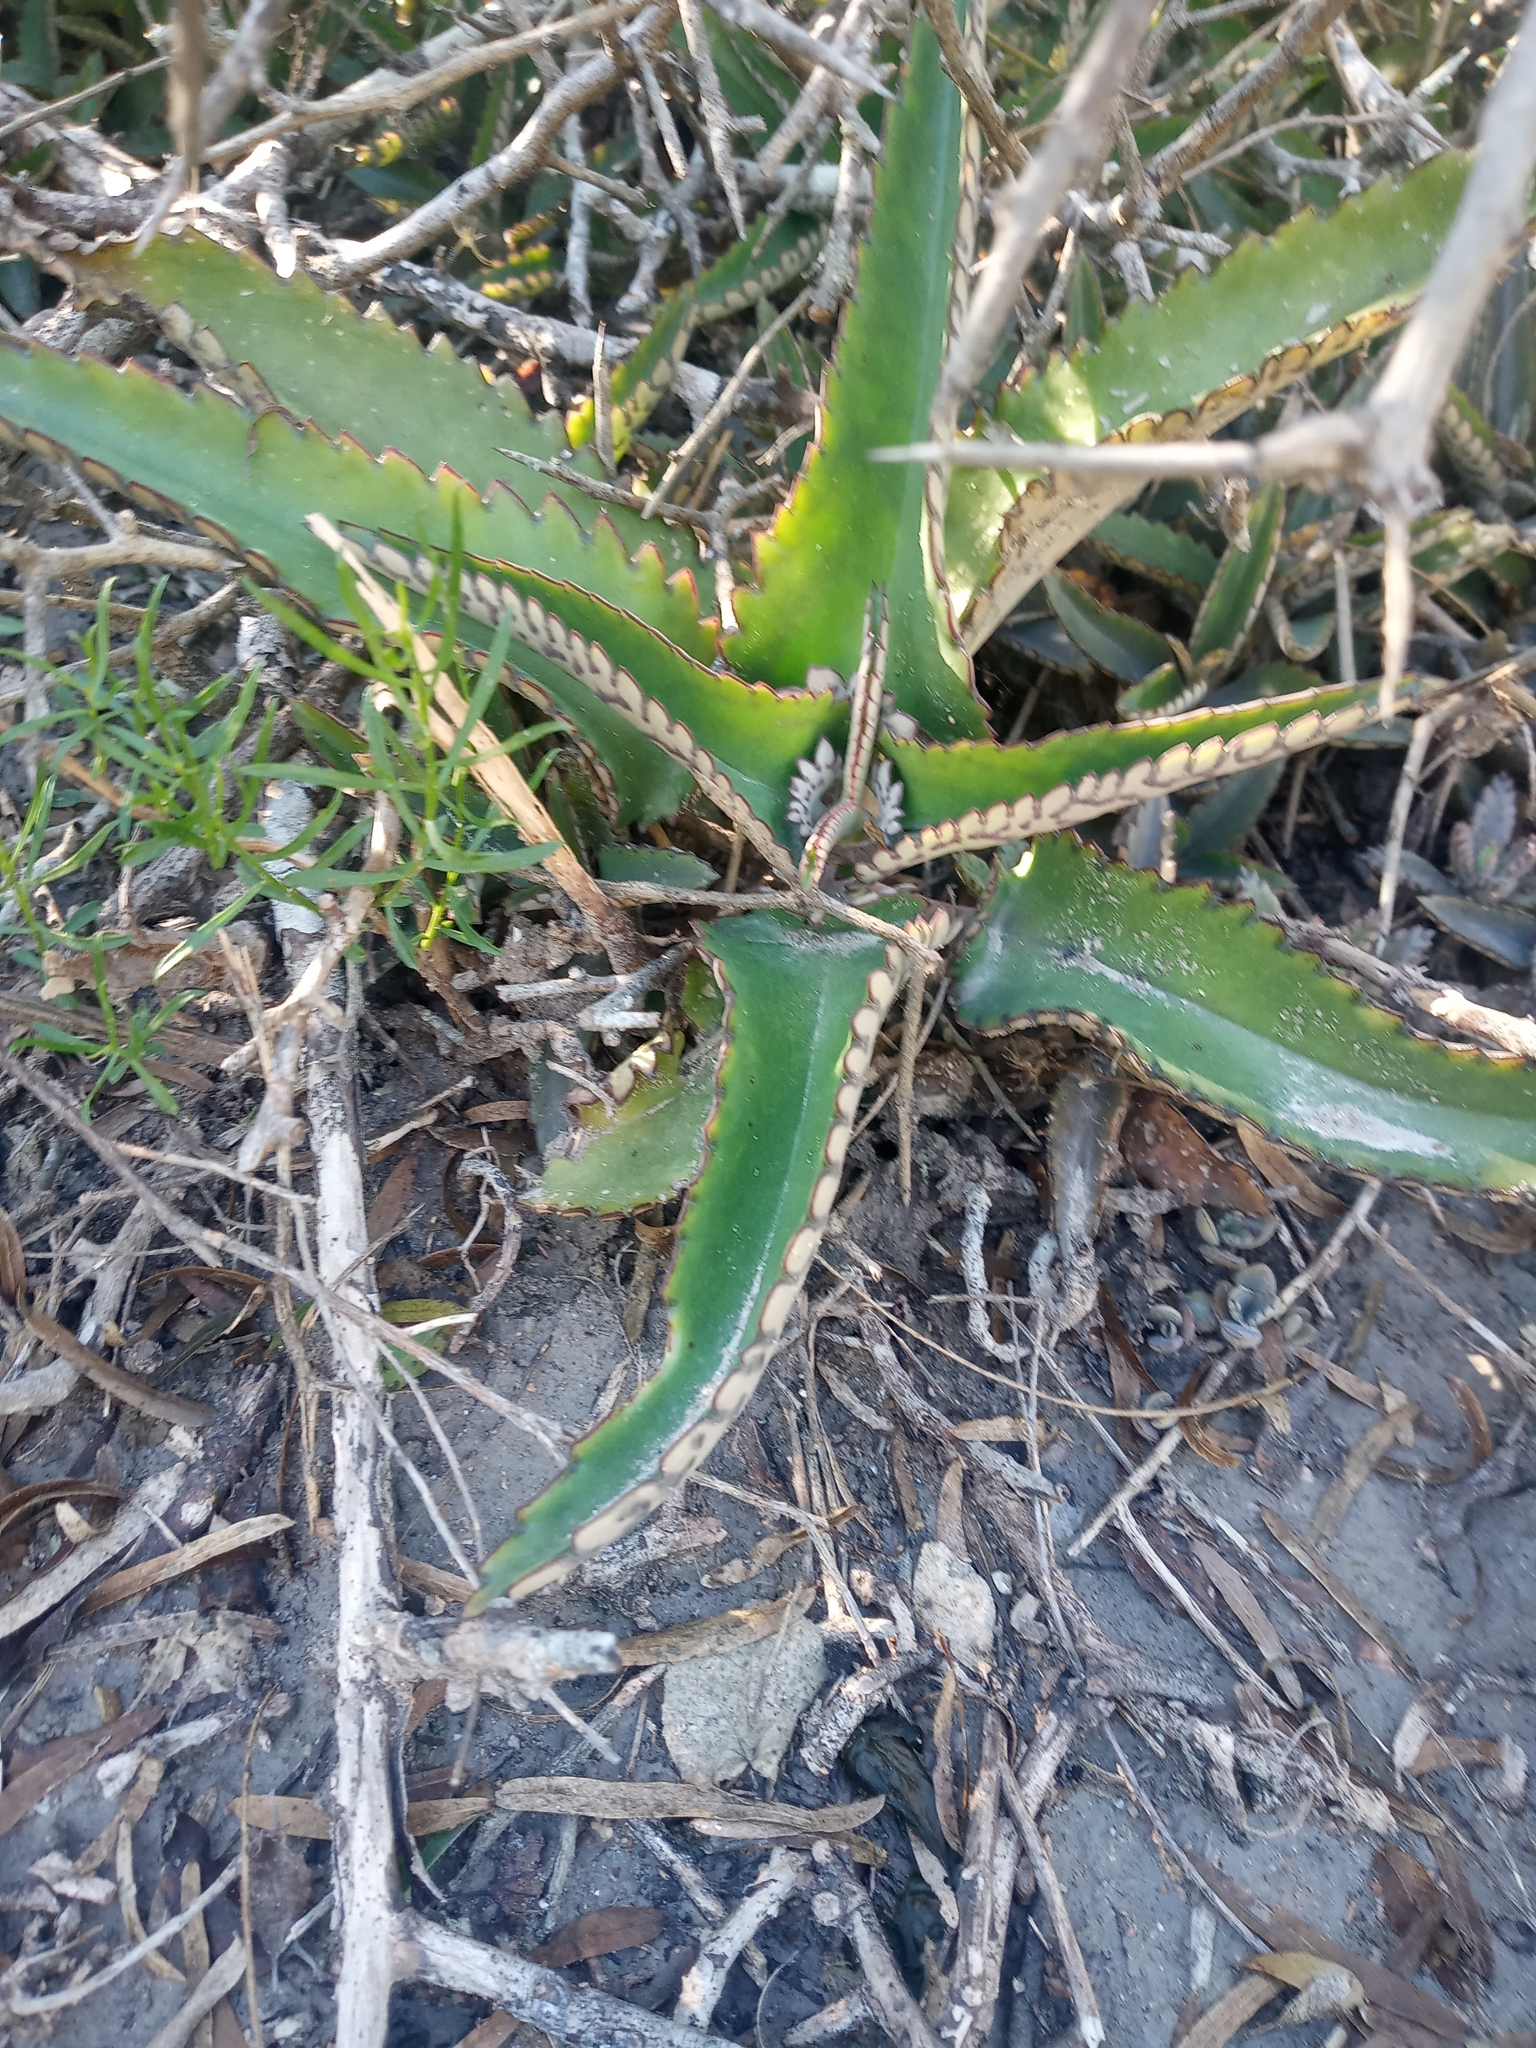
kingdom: Plantae
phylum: Tracheophyta
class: Magnoliopsida
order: Saxifragales
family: Crassulaceae
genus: Kalanchoe
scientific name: Kalanchoe daigremontiana
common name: Devil's backbone
